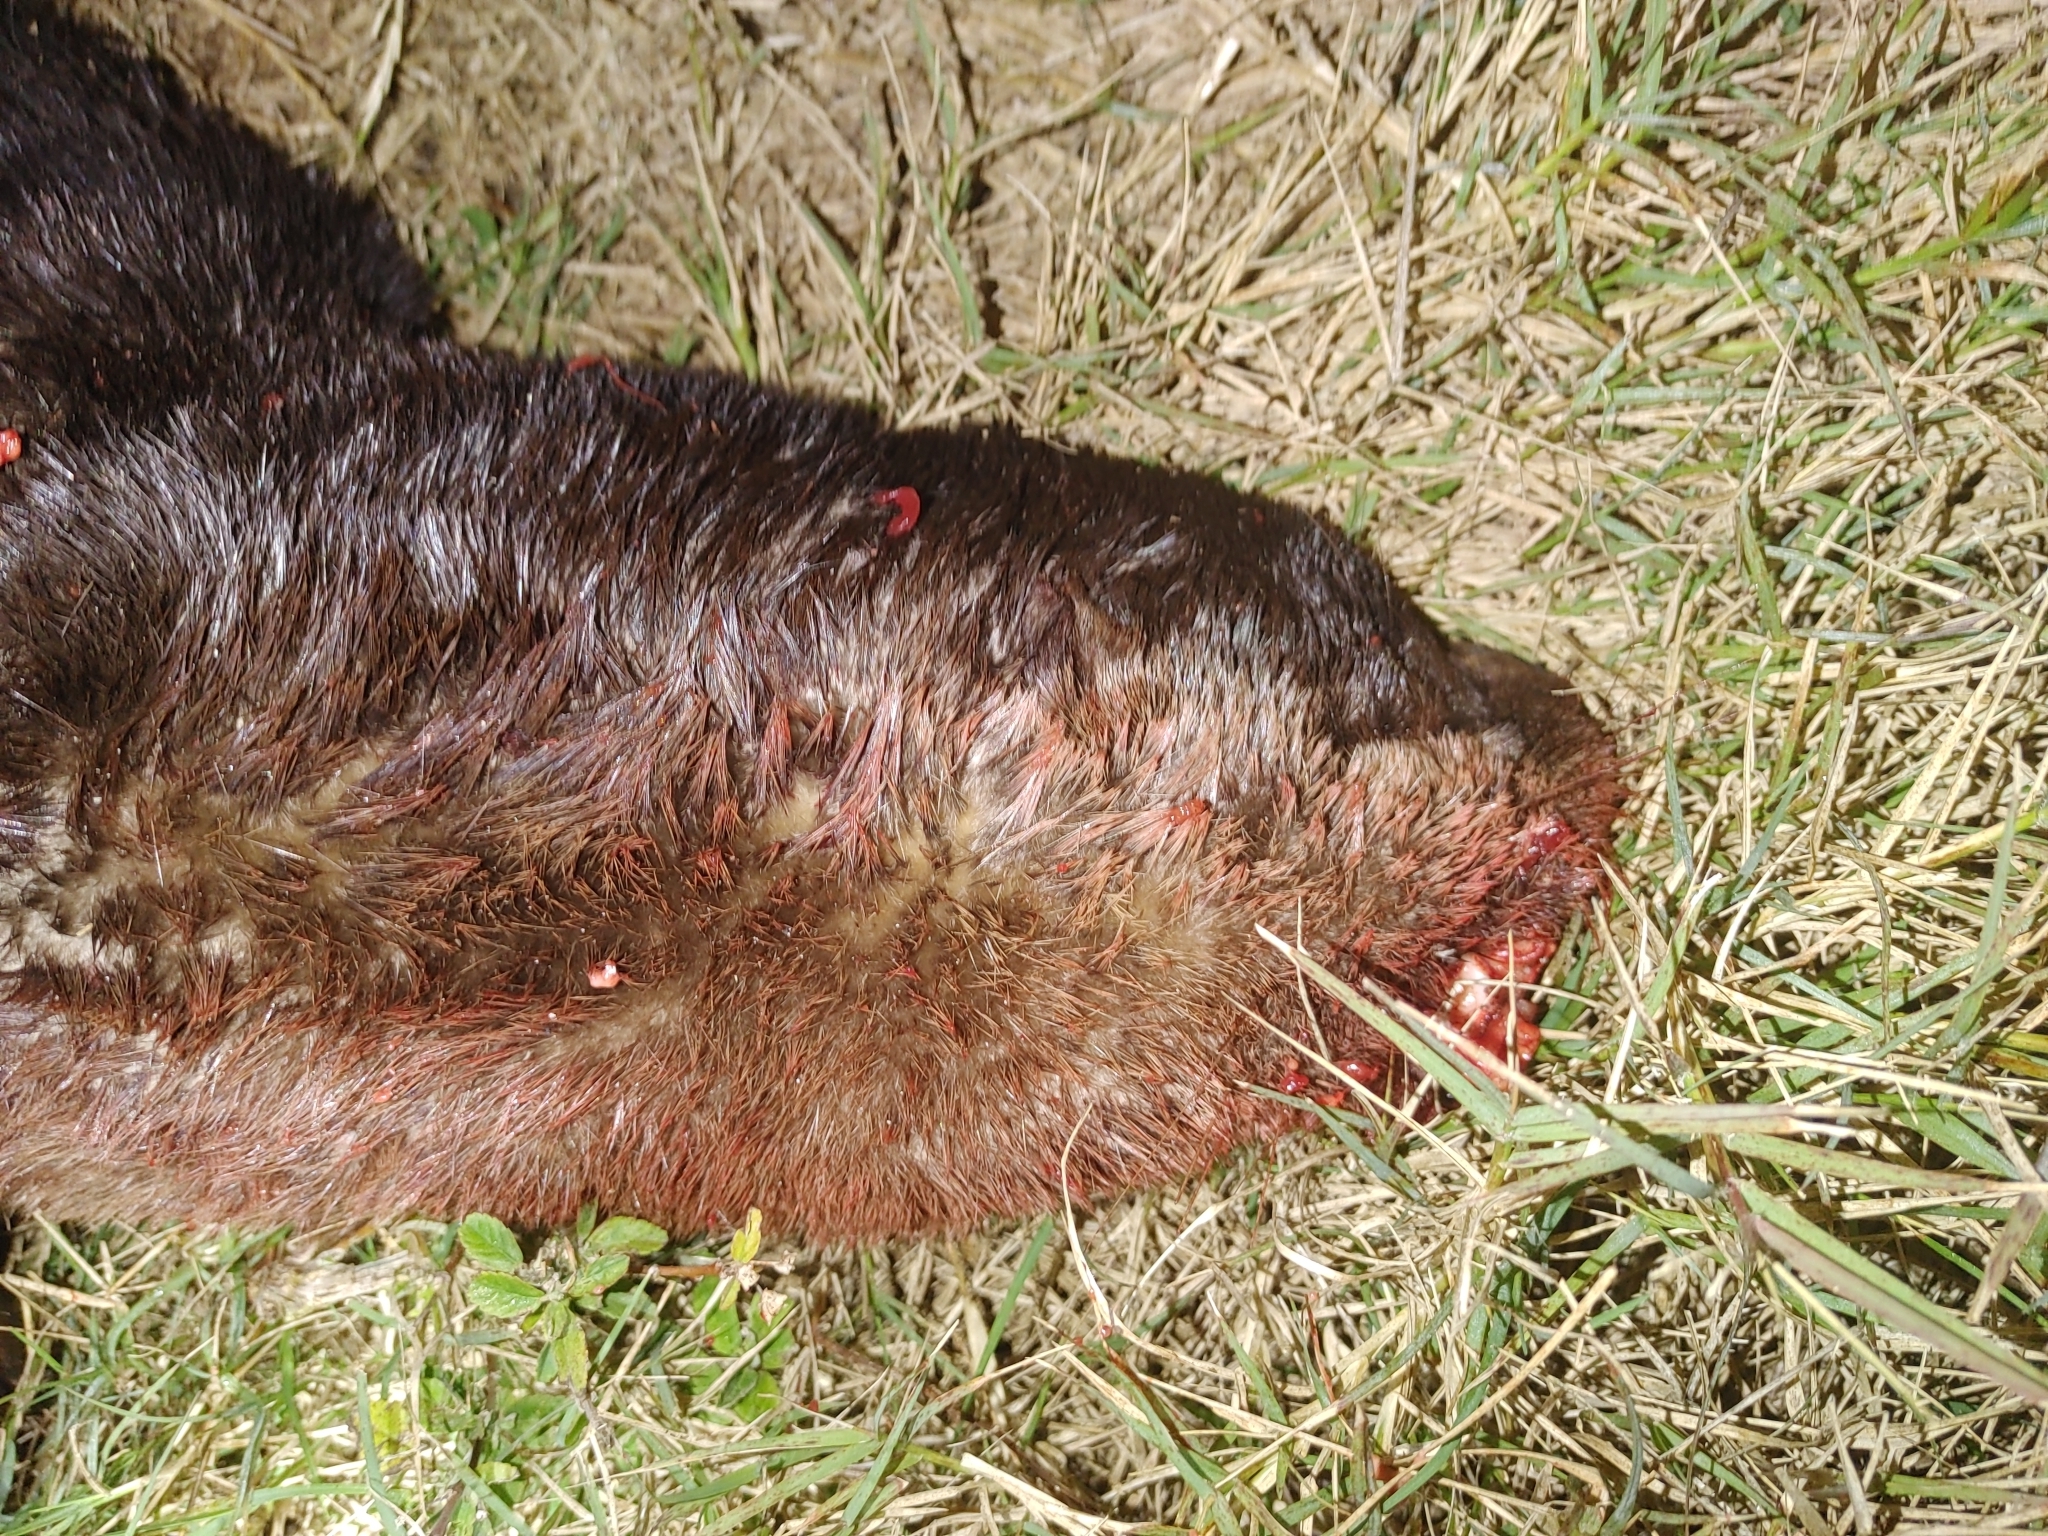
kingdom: Animalia
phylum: Chordata
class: Mammalia
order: Carnivora
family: Mustelidae
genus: Lontra
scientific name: Lontra canadensis
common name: North american river otter
